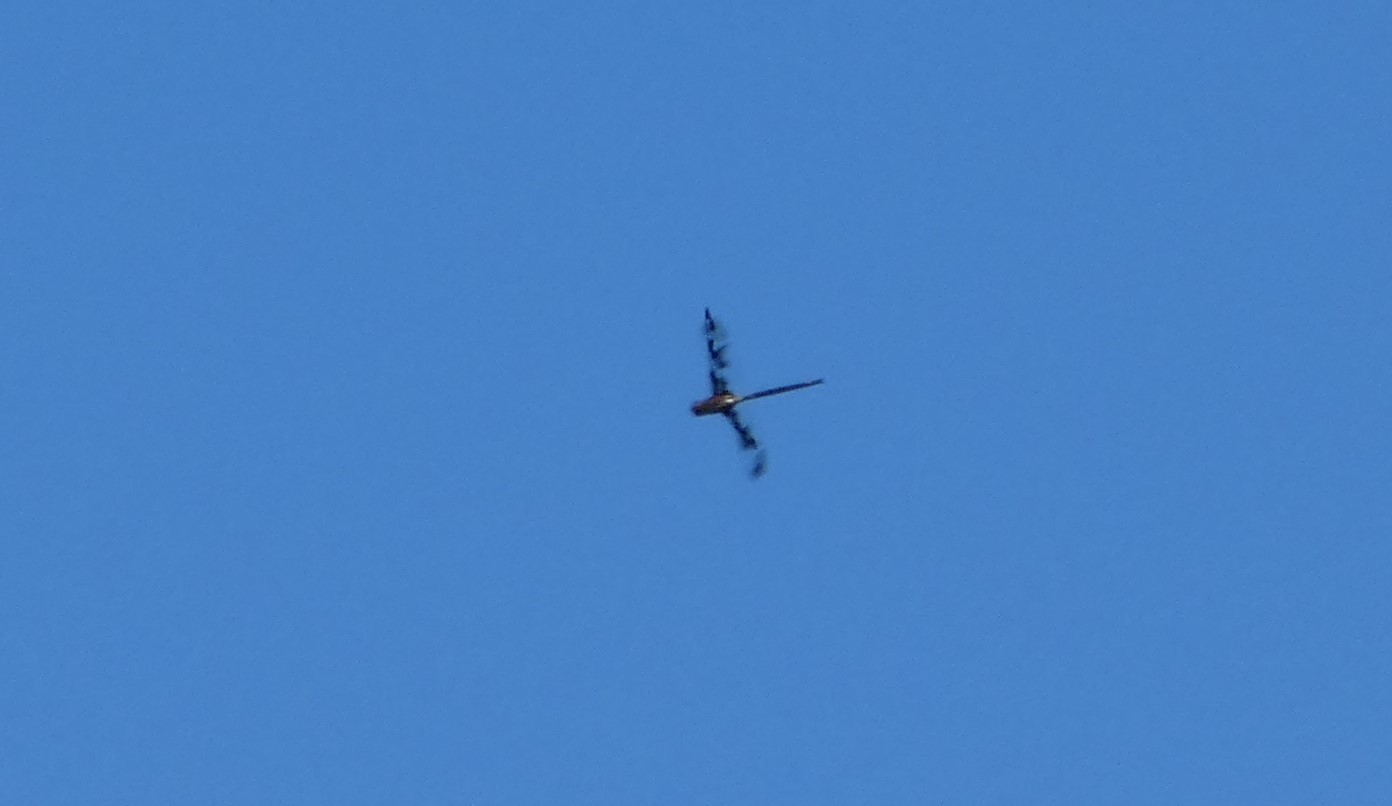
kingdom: Animalia
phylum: Arthropoda
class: Insecta
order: Odonata
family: Corduliidae
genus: Epitheca
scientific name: Epitheca princeps
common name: Prince baskettail
